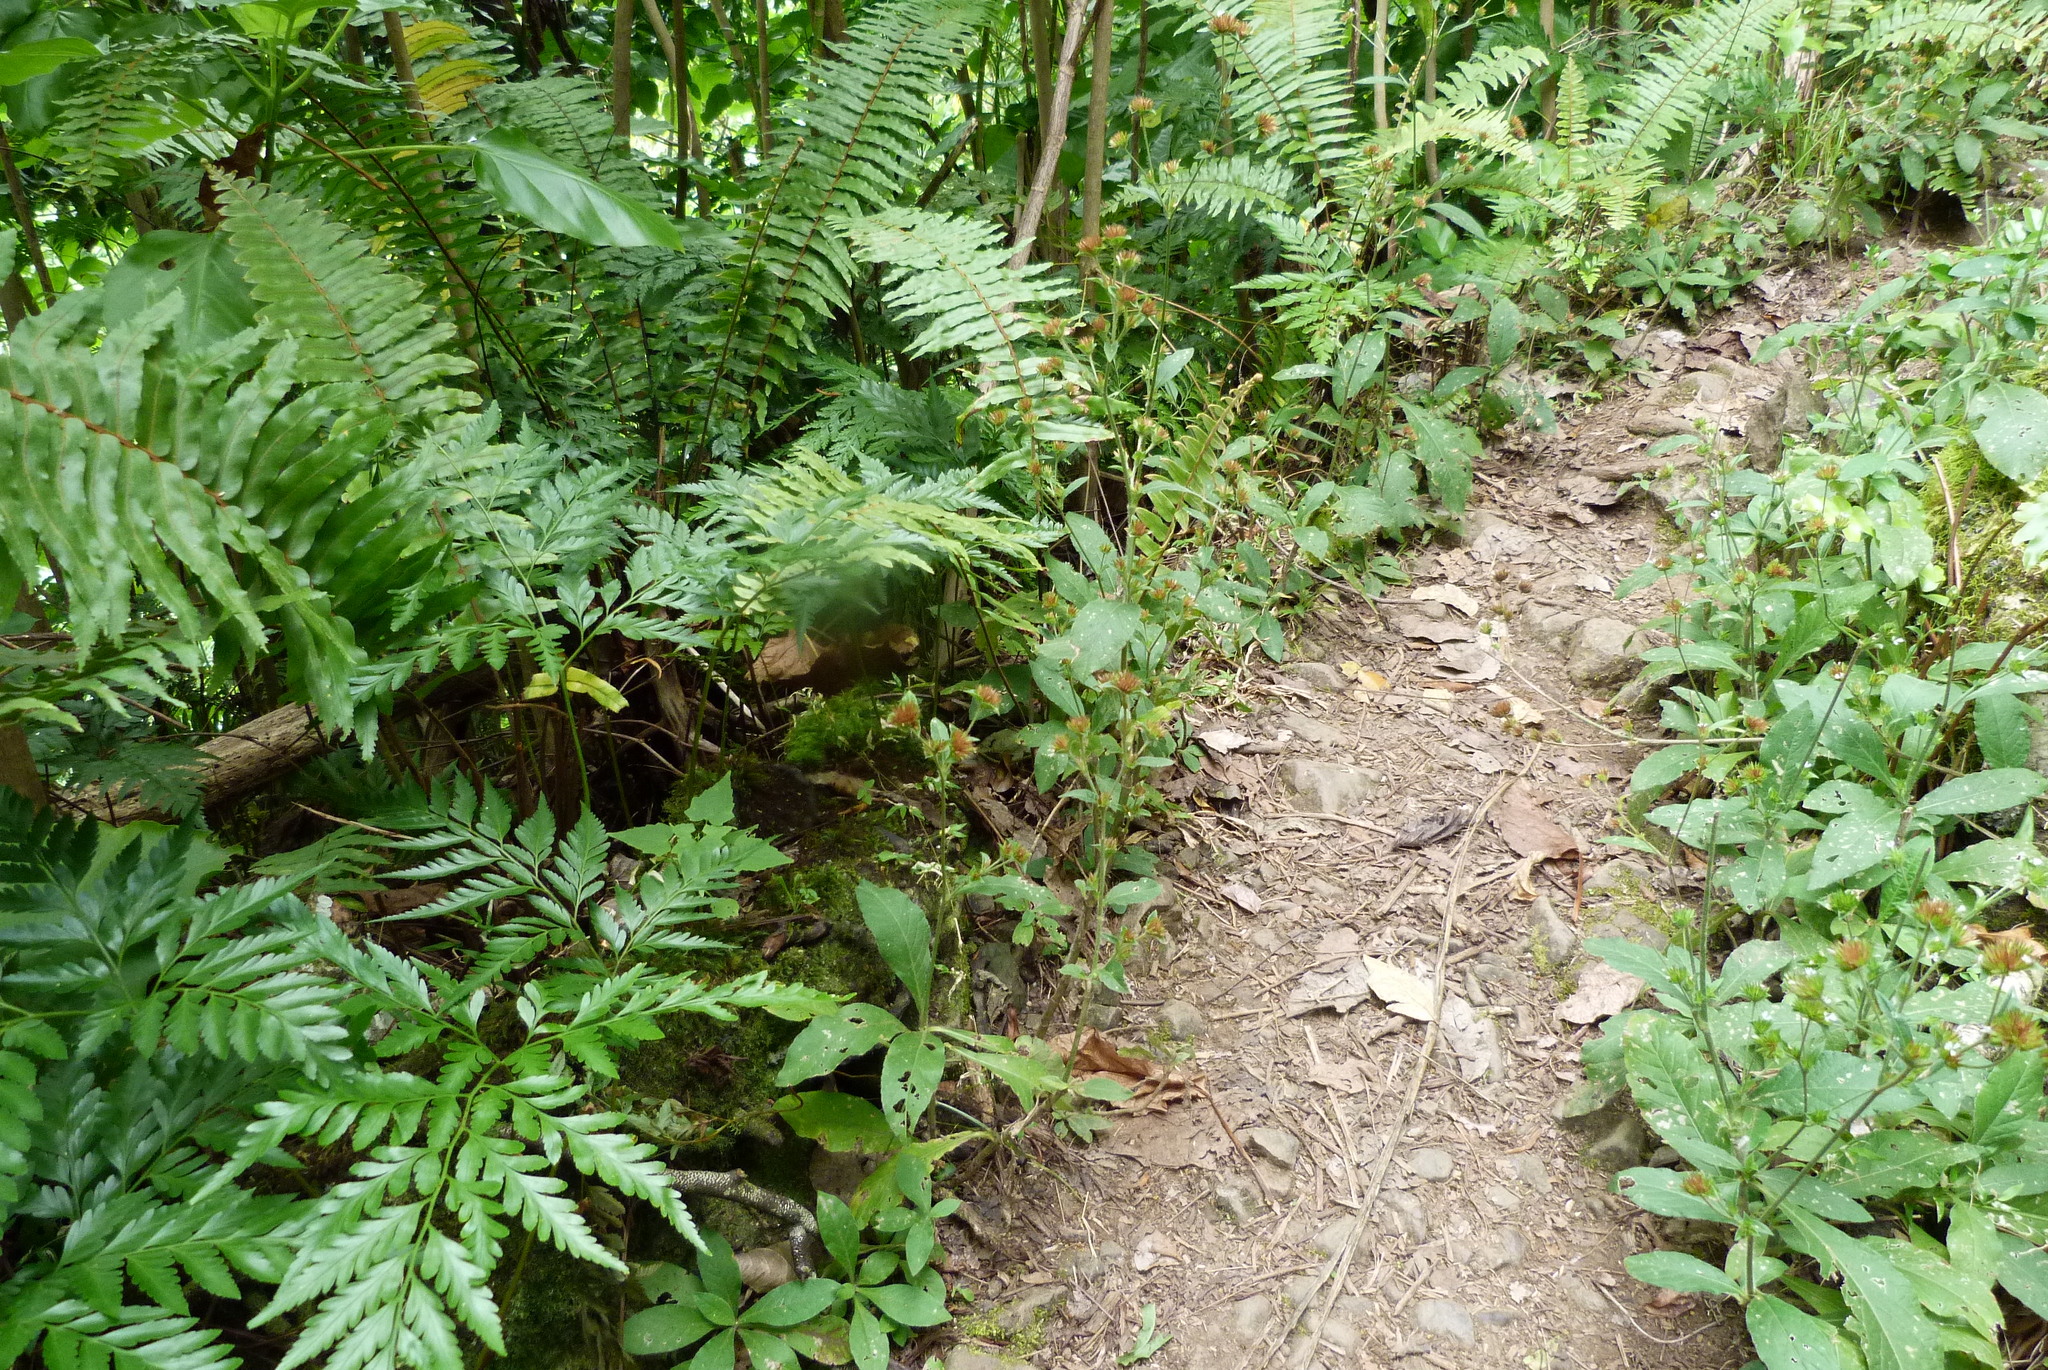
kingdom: Plantae
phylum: Tracheophyta
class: Magnoliopsida
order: Asterales
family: Asteraceae
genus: Elephantopus
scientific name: Elephantopus mollis
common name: Soft elephantsfoot
